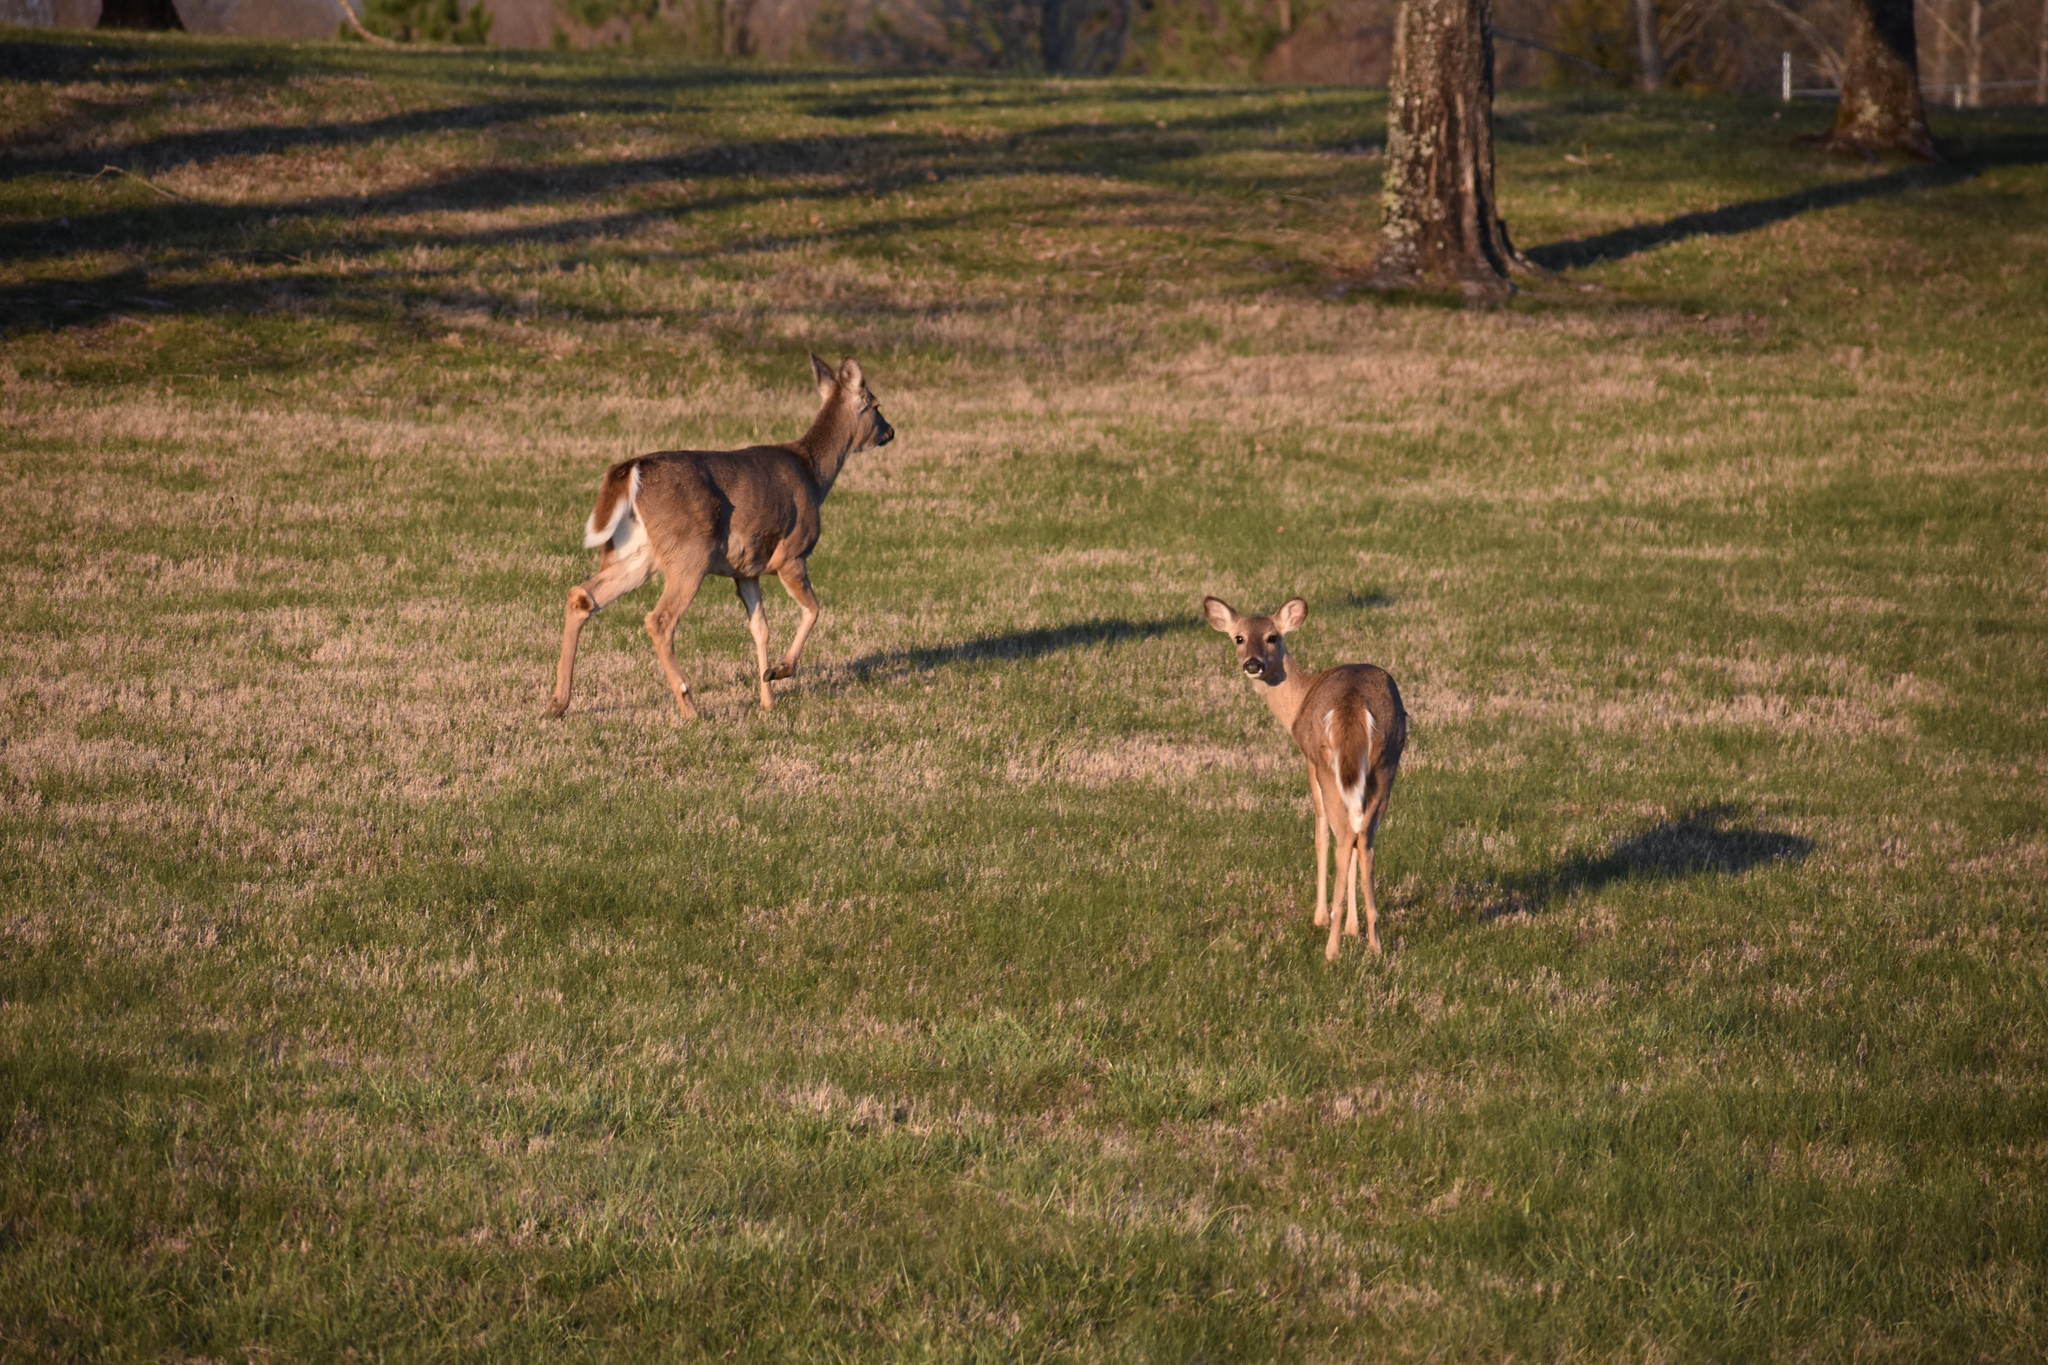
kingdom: Animalia
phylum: Chordata
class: Mammalia
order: Artiodactyla
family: Cervidae
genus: Odocoileus
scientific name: Odocoileus virginianus
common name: White-tailed deer
